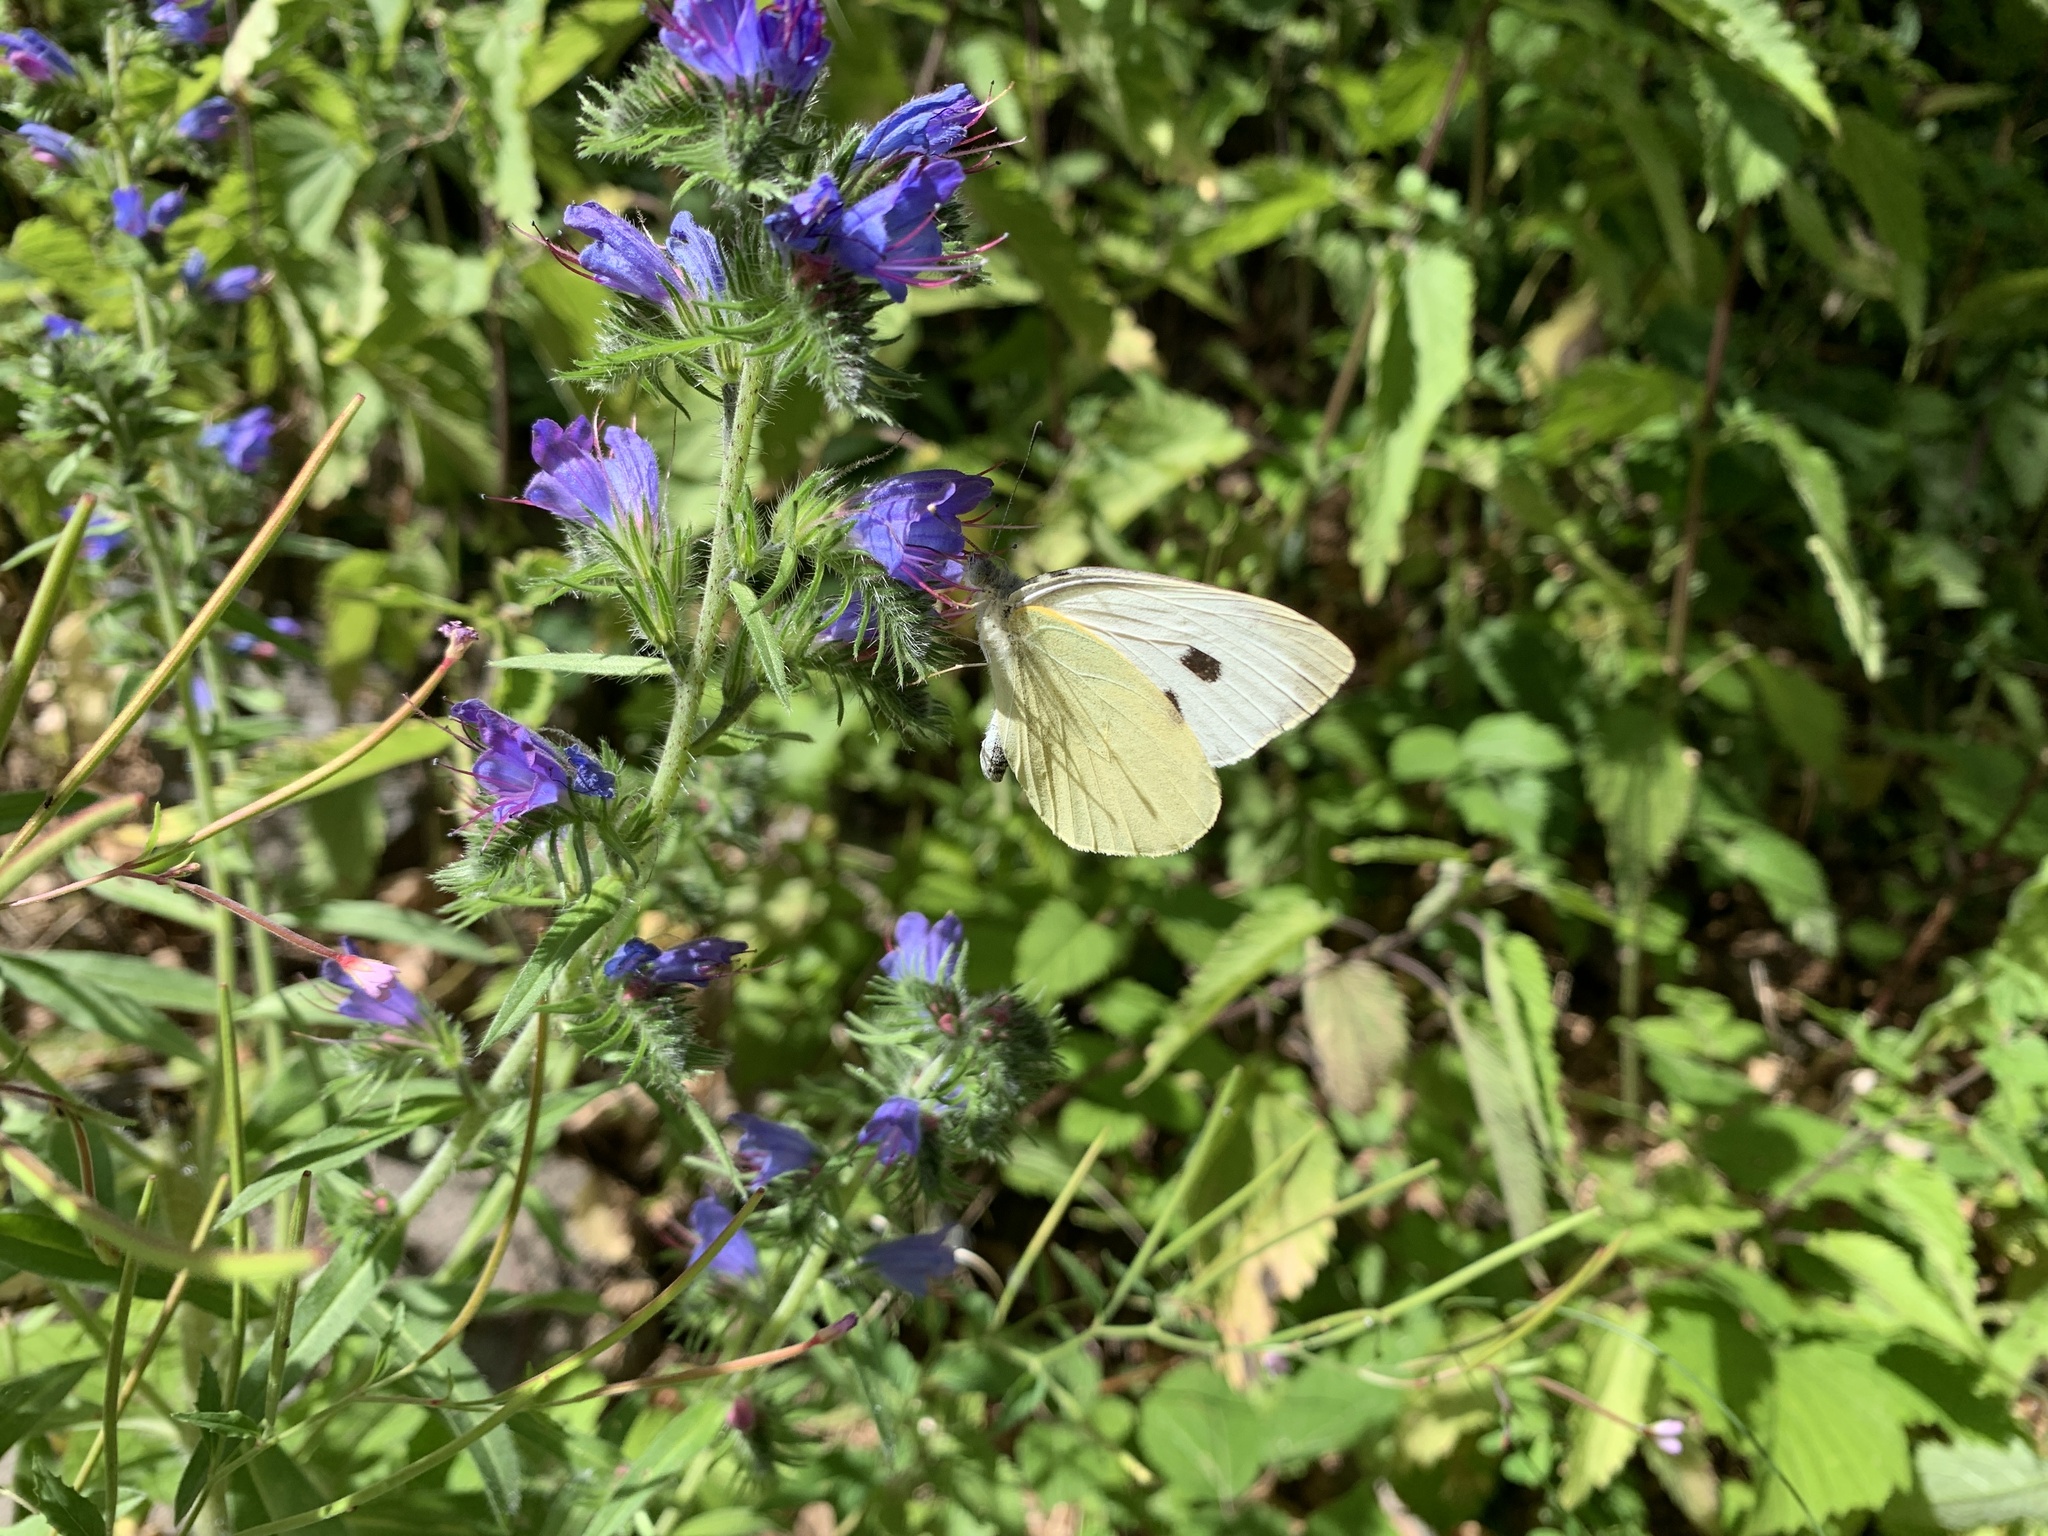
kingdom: Animalia
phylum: Arthropoda
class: Insecta
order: Lepidoptera
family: Pieridae
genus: Pieris
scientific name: Pieris brassicae
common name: Large white
